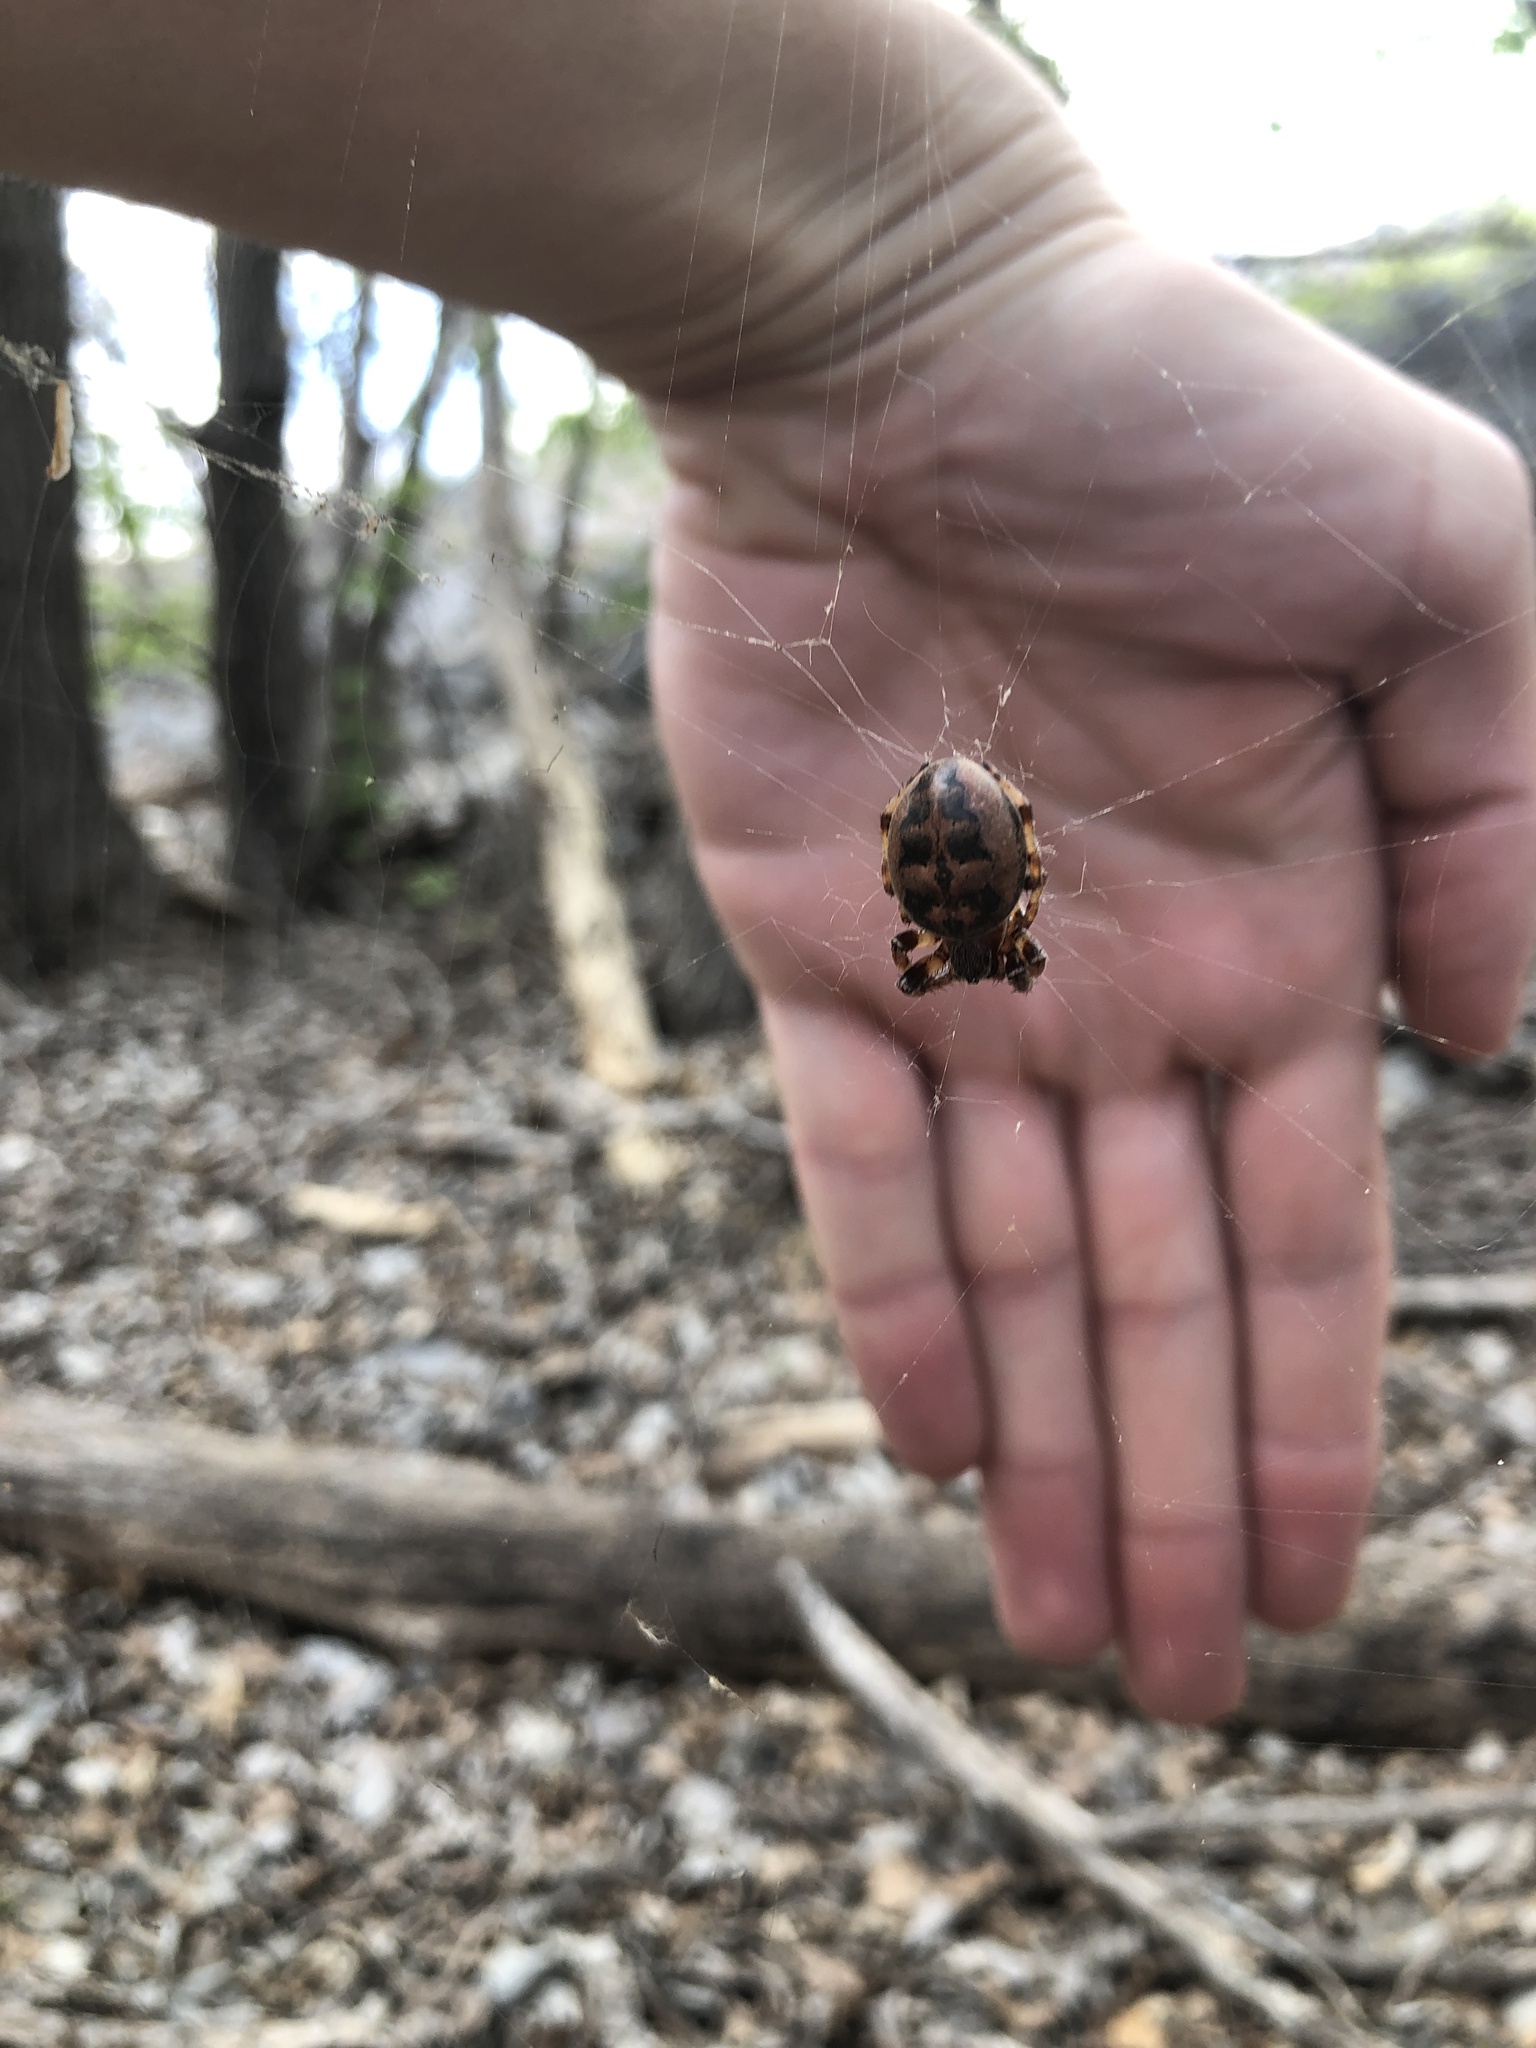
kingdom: Animalia
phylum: Arthropoda
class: Arachnida
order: Araneae
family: Araneidae
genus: Larinioides
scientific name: Larinioides cornutus
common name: Furrow orbweaver
